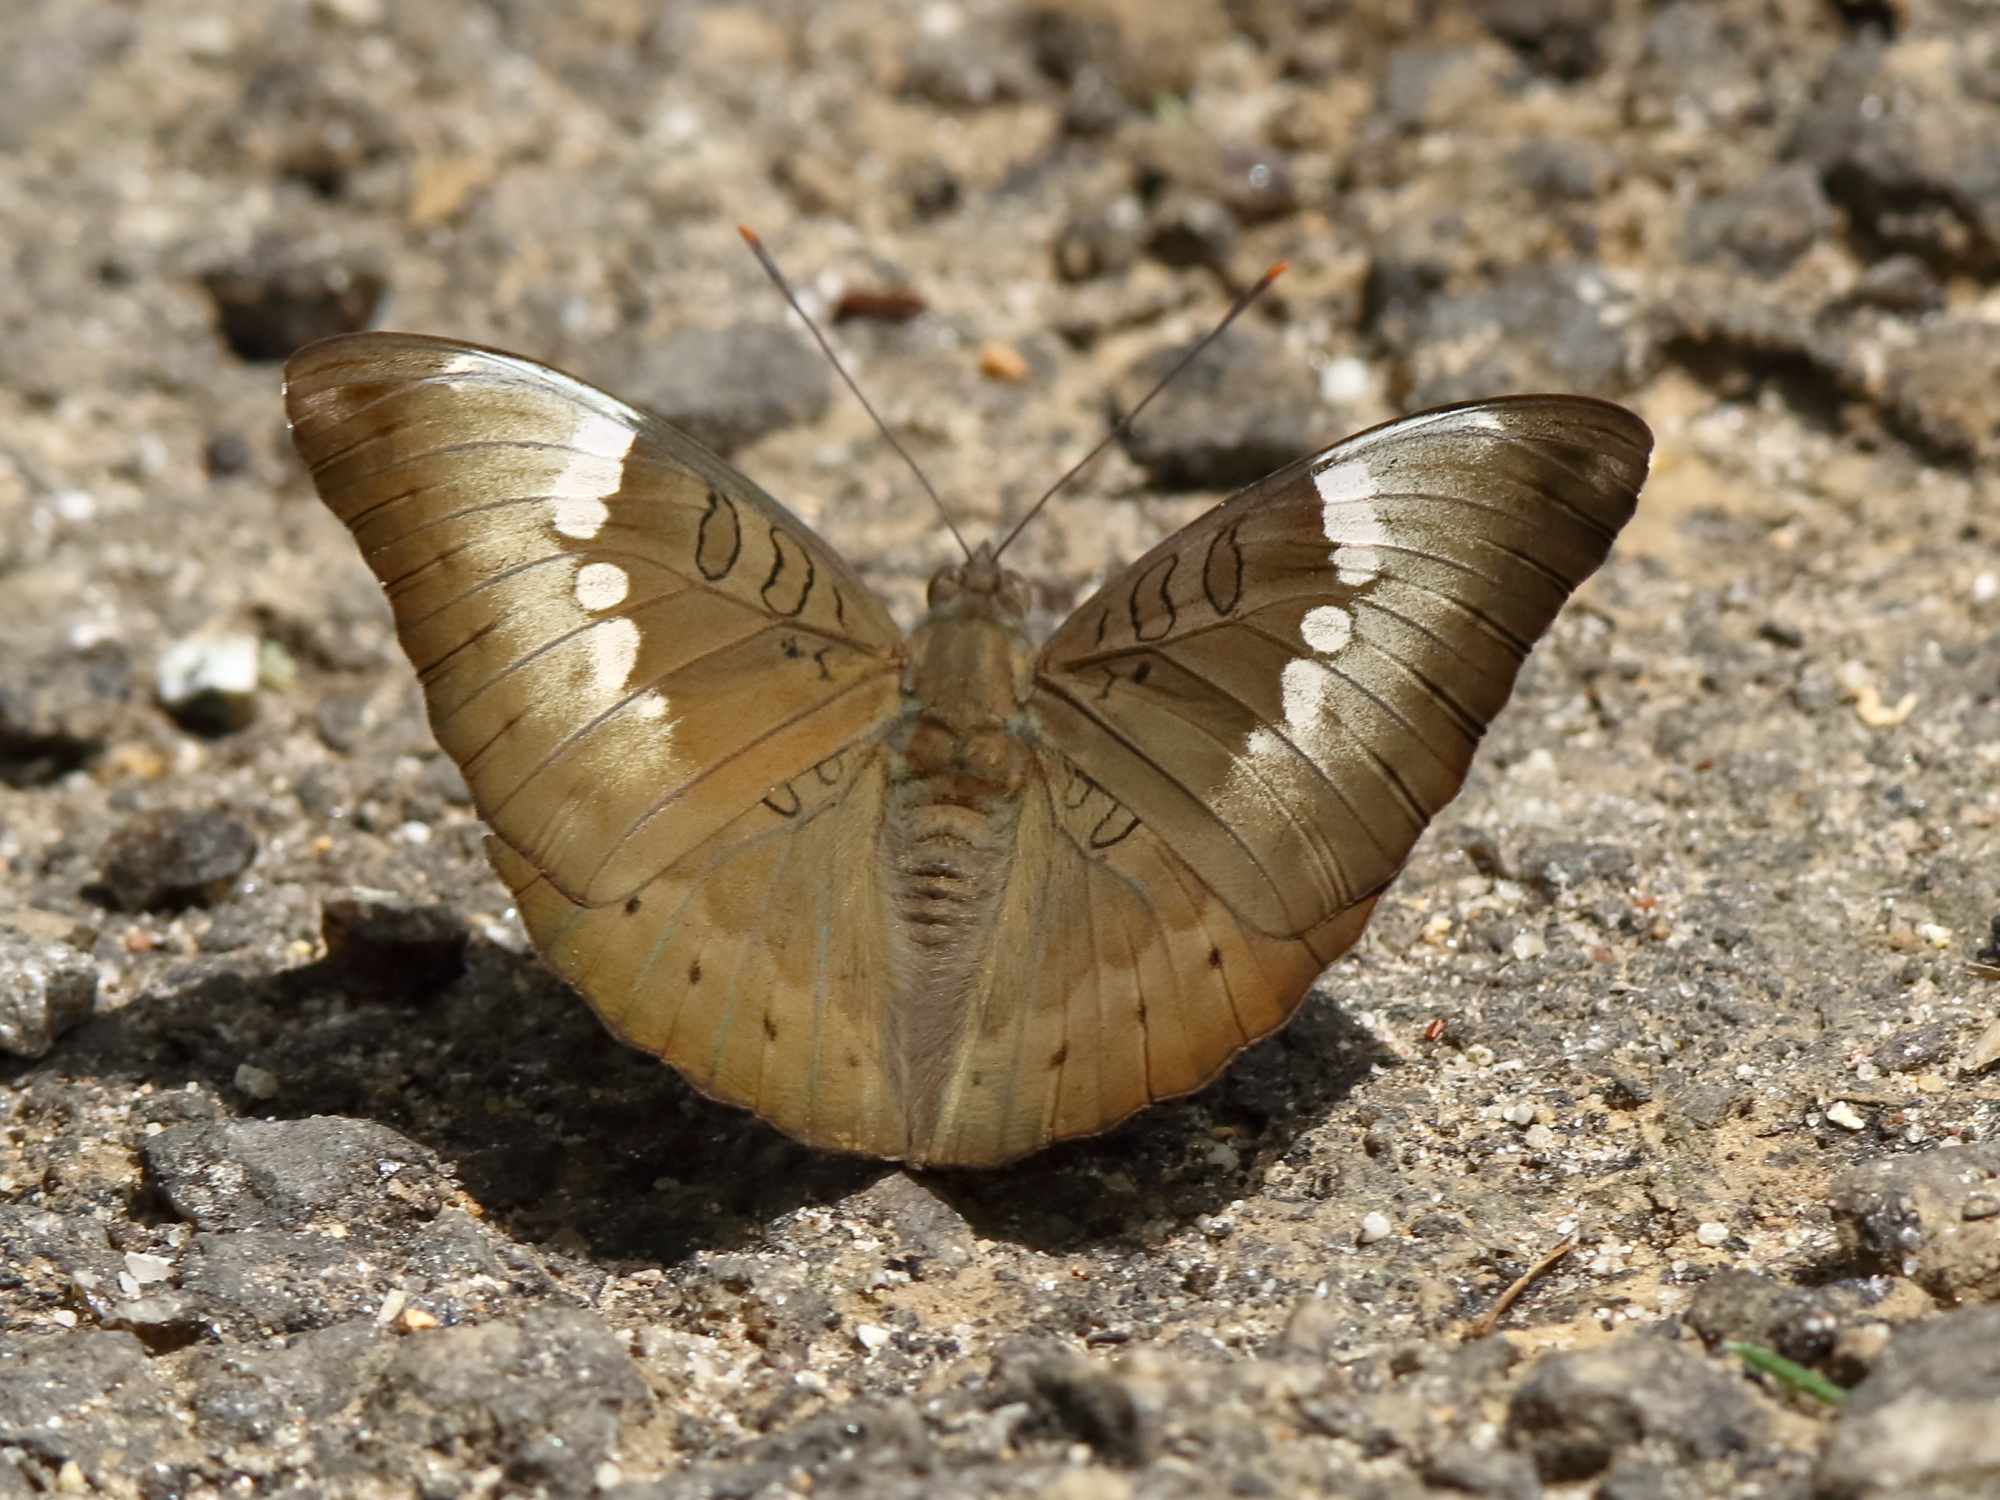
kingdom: Animalia
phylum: Arthropoda
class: Insecta
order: Lepidoptera
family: Nymphalidae
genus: Euthalia
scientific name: Euthalia aconthea
